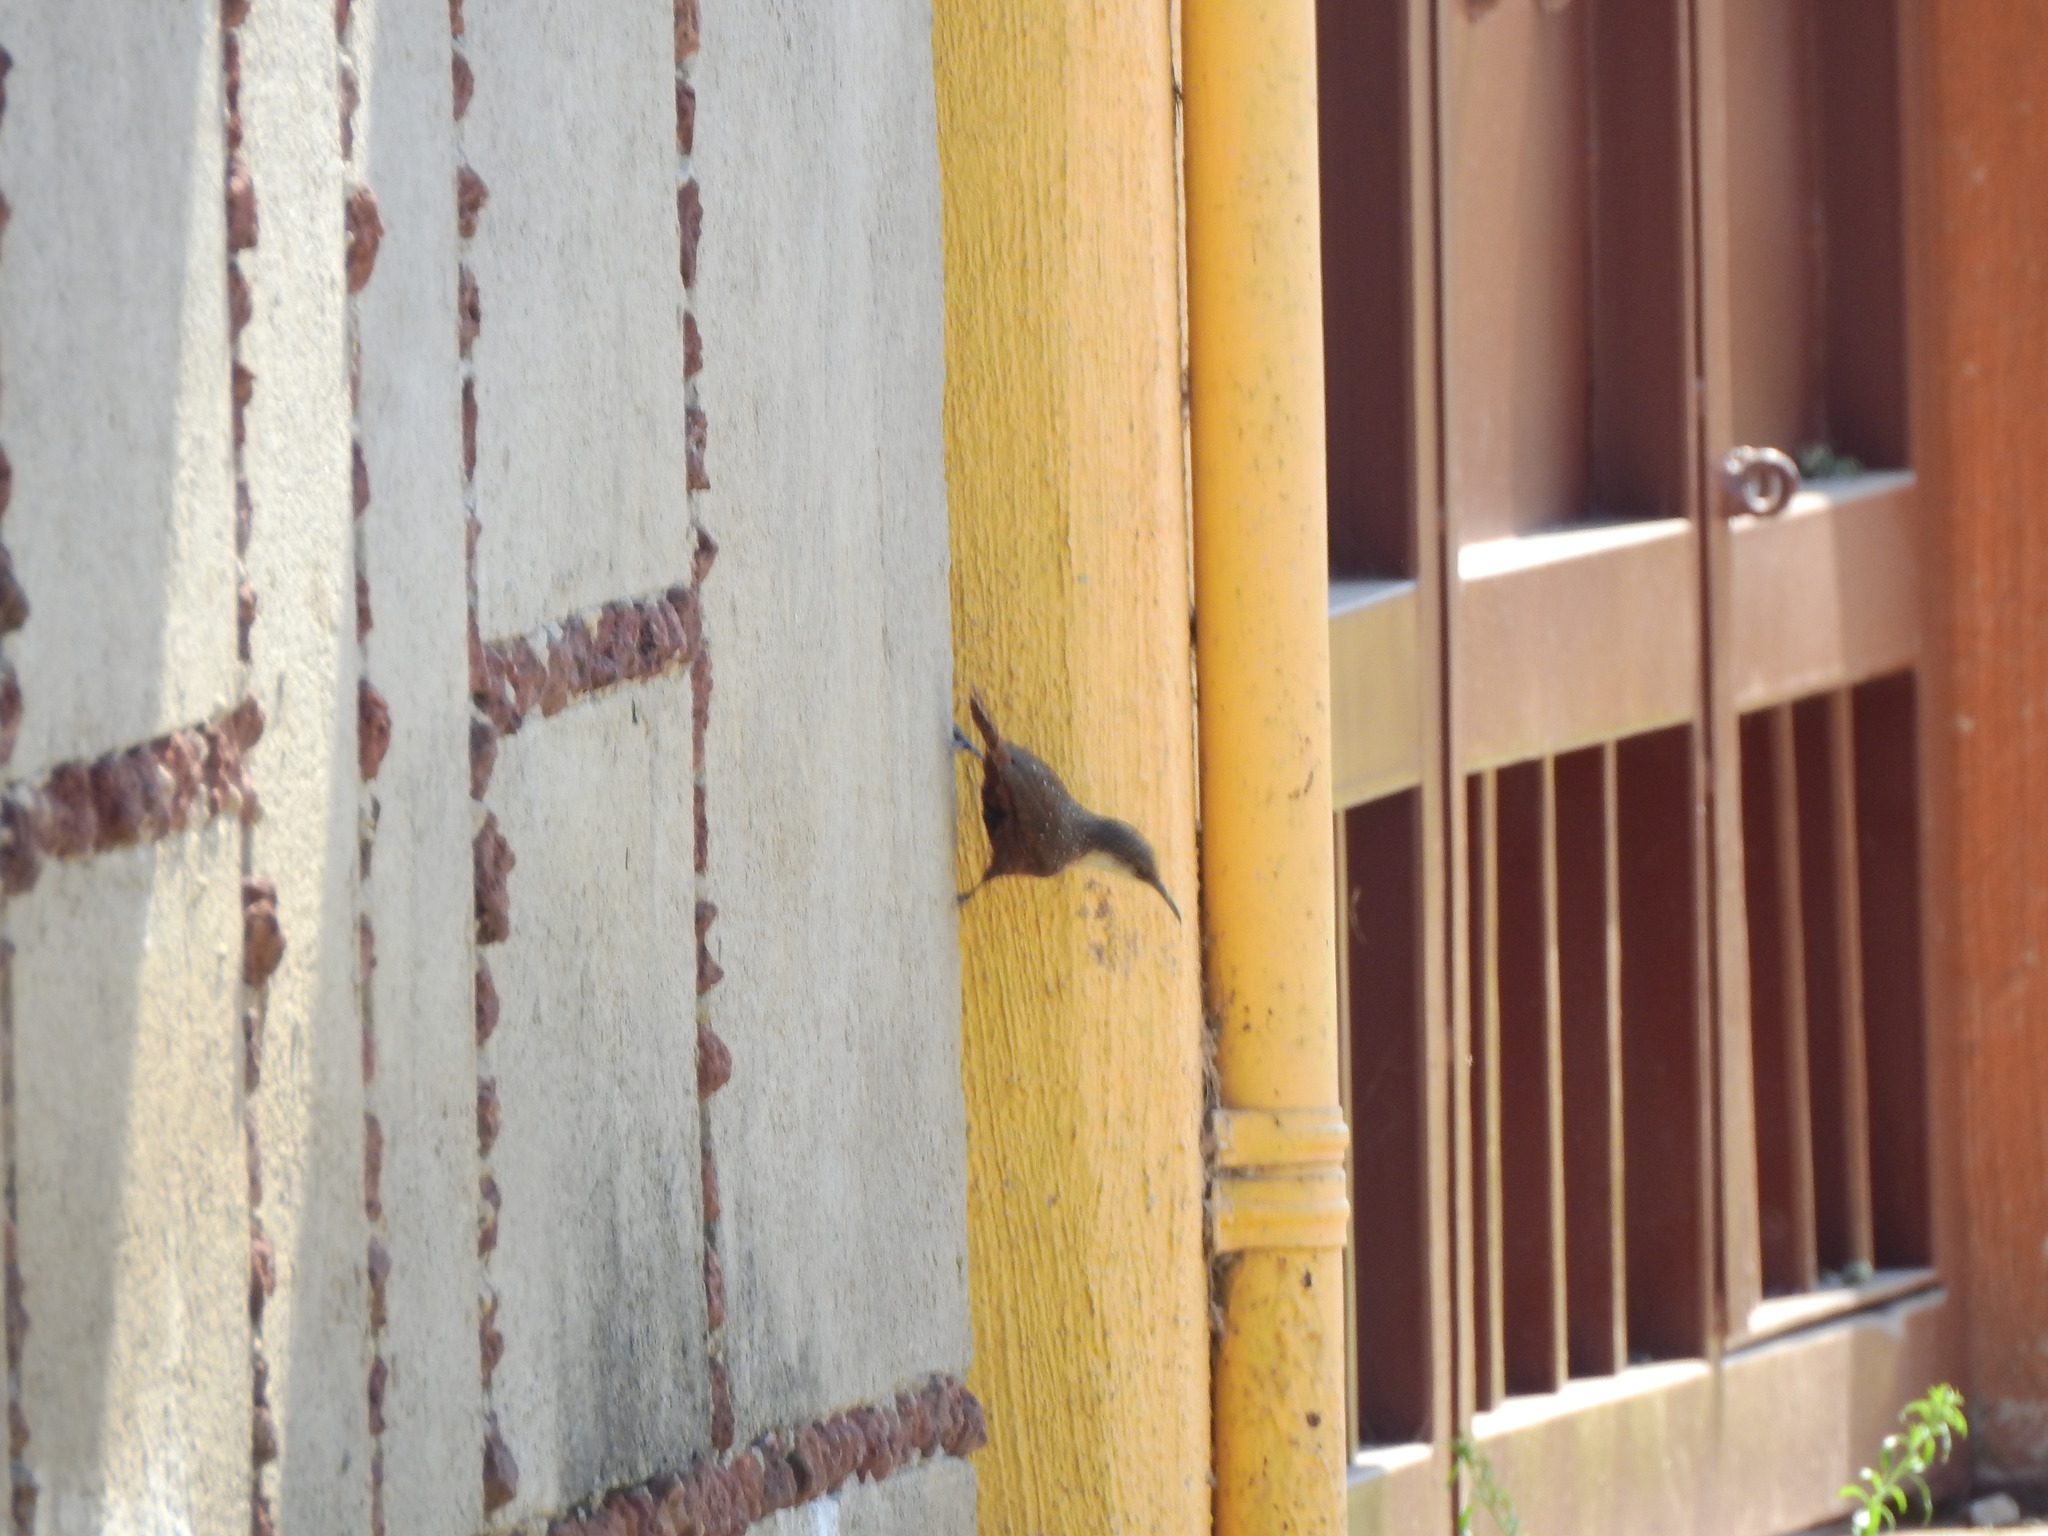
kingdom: Animalia
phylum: Chordata
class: Aves
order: Passeriformes
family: Troglodytidae
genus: Catherpes
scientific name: Catherpes mexicanus
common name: Canyon wren
